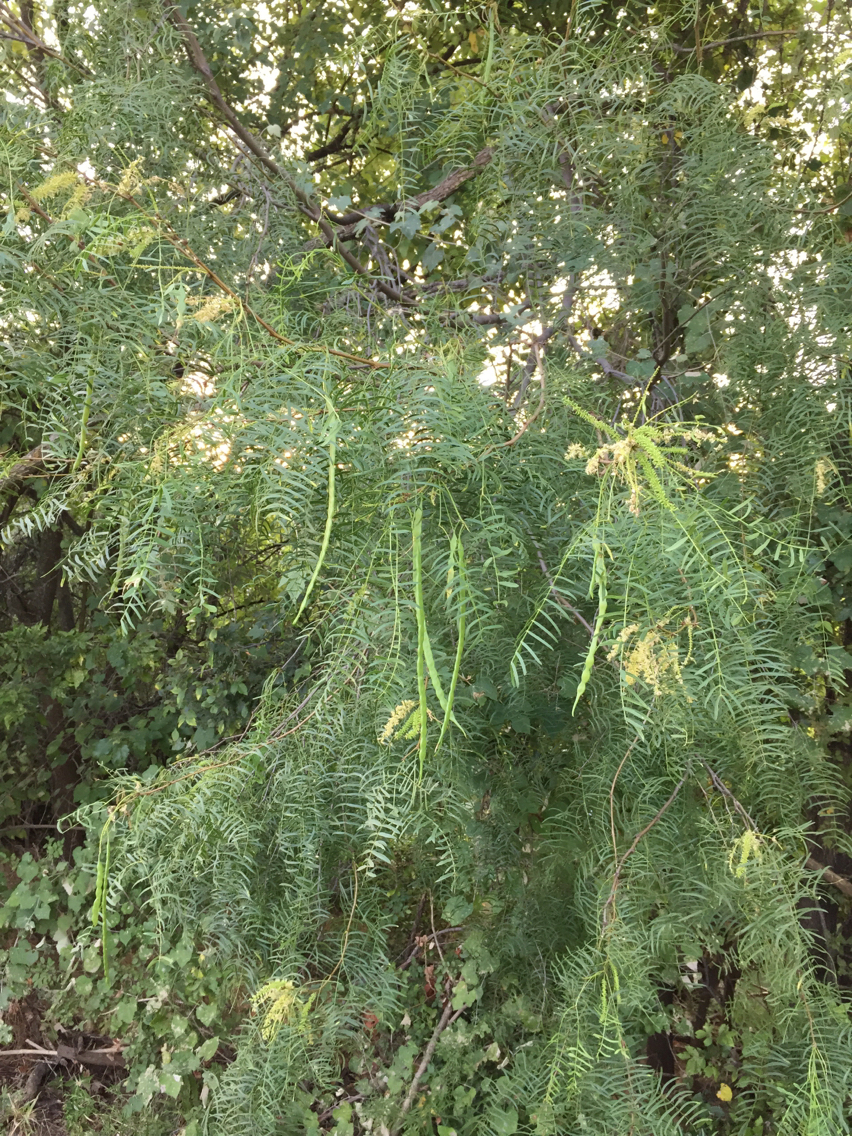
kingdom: Plantae
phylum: Tracheophyta
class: Magnoliopsida
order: Fabales
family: Fabaceae
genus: Prosopis
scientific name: Prosopis glandulosa
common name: Honey mesquite
